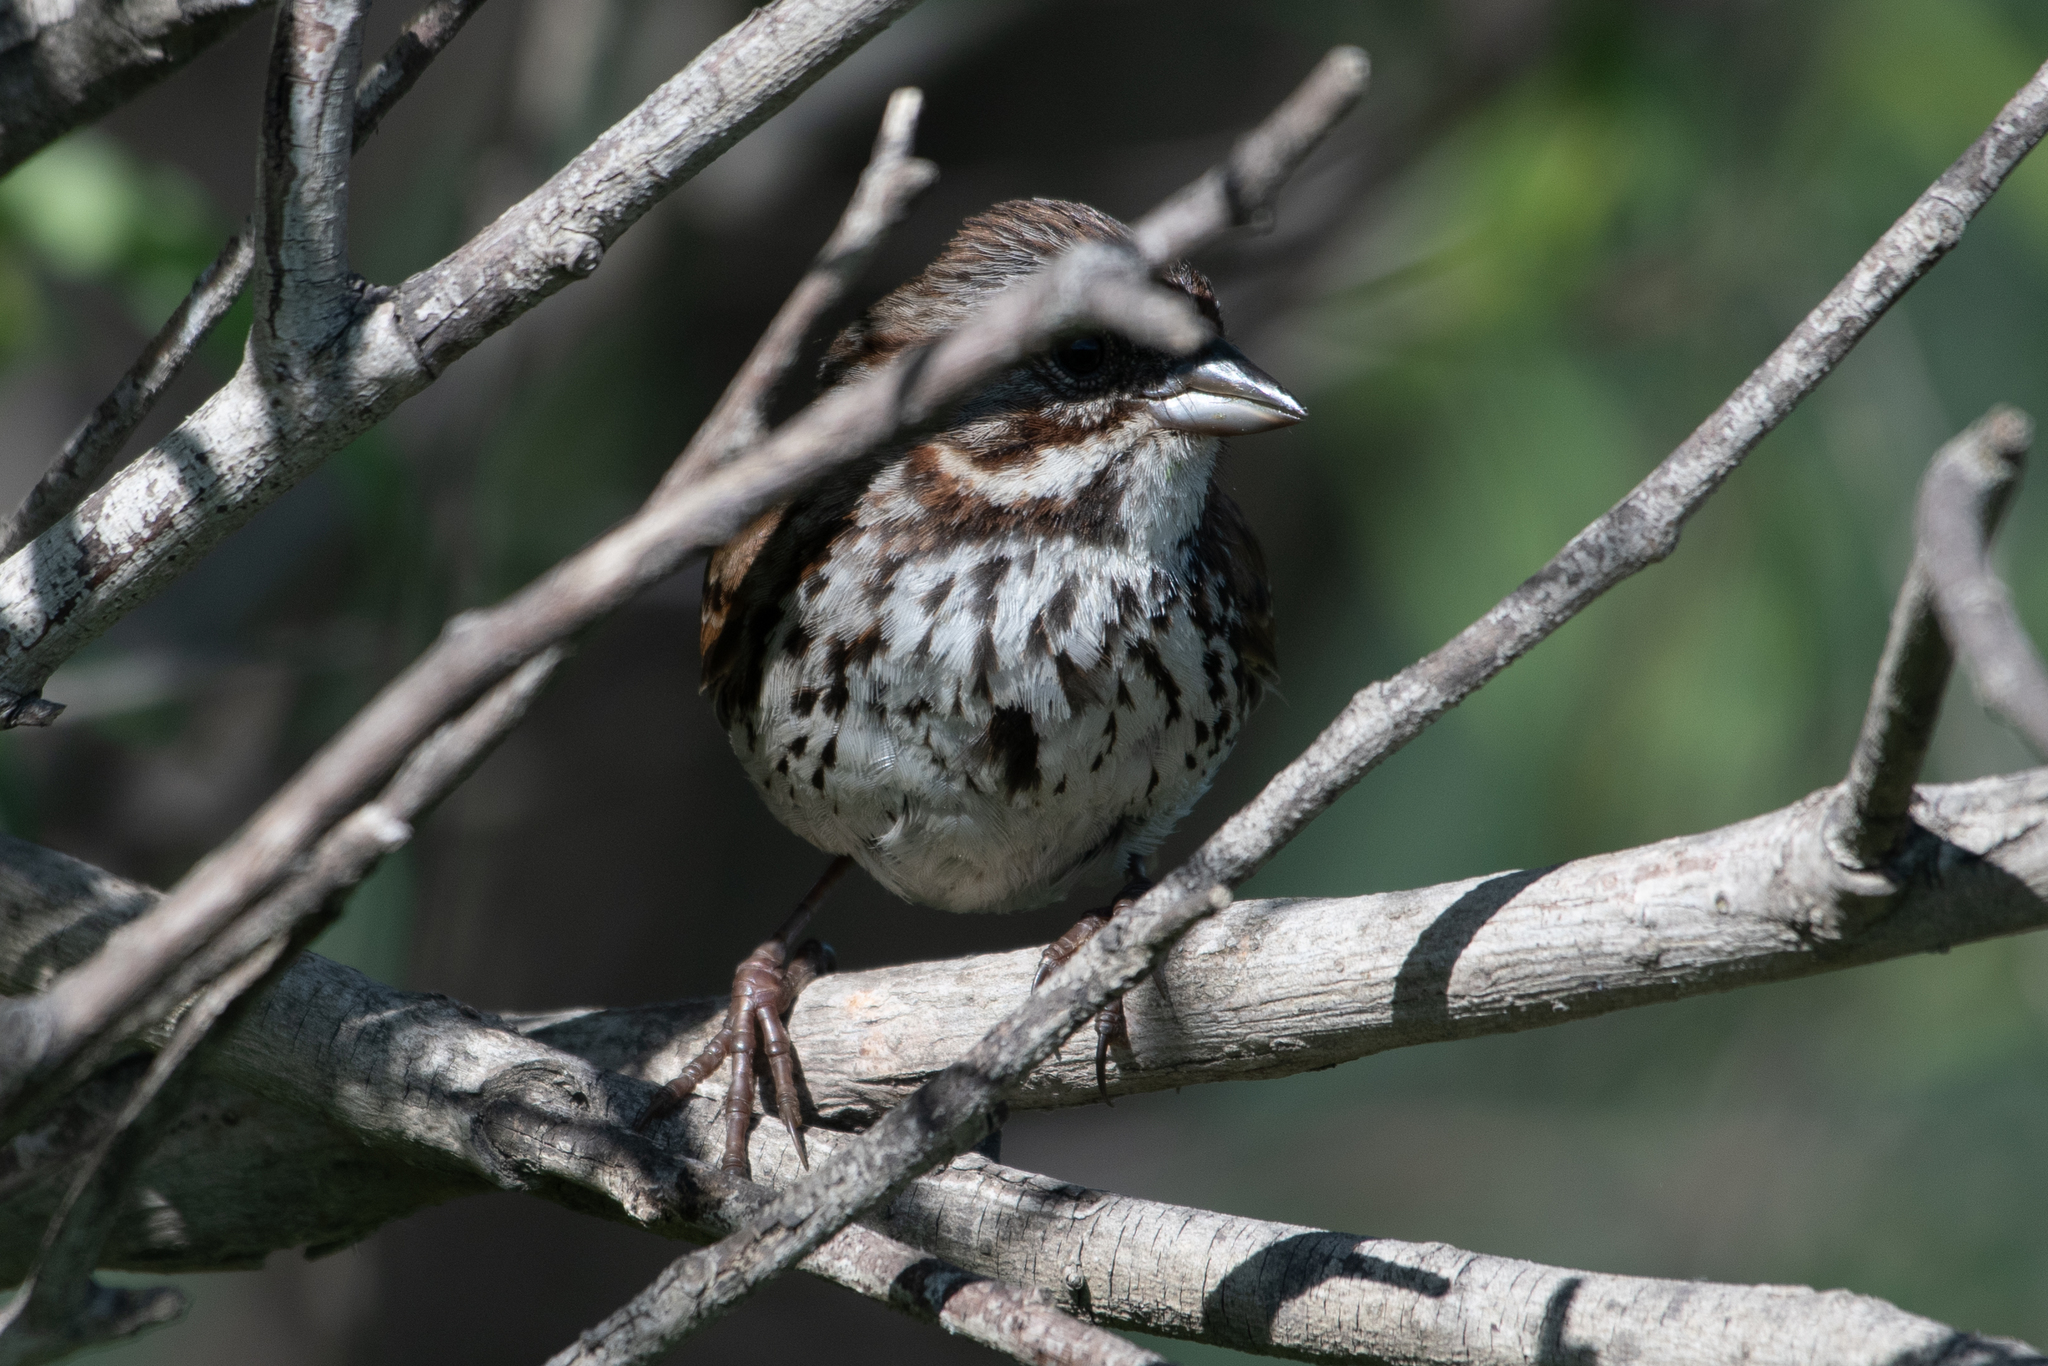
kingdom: Animalia
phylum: Chordata
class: Aves
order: Passeriformes
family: Passerellidae
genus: Melospiza
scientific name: Melospiza melodia
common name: Song sparrow
